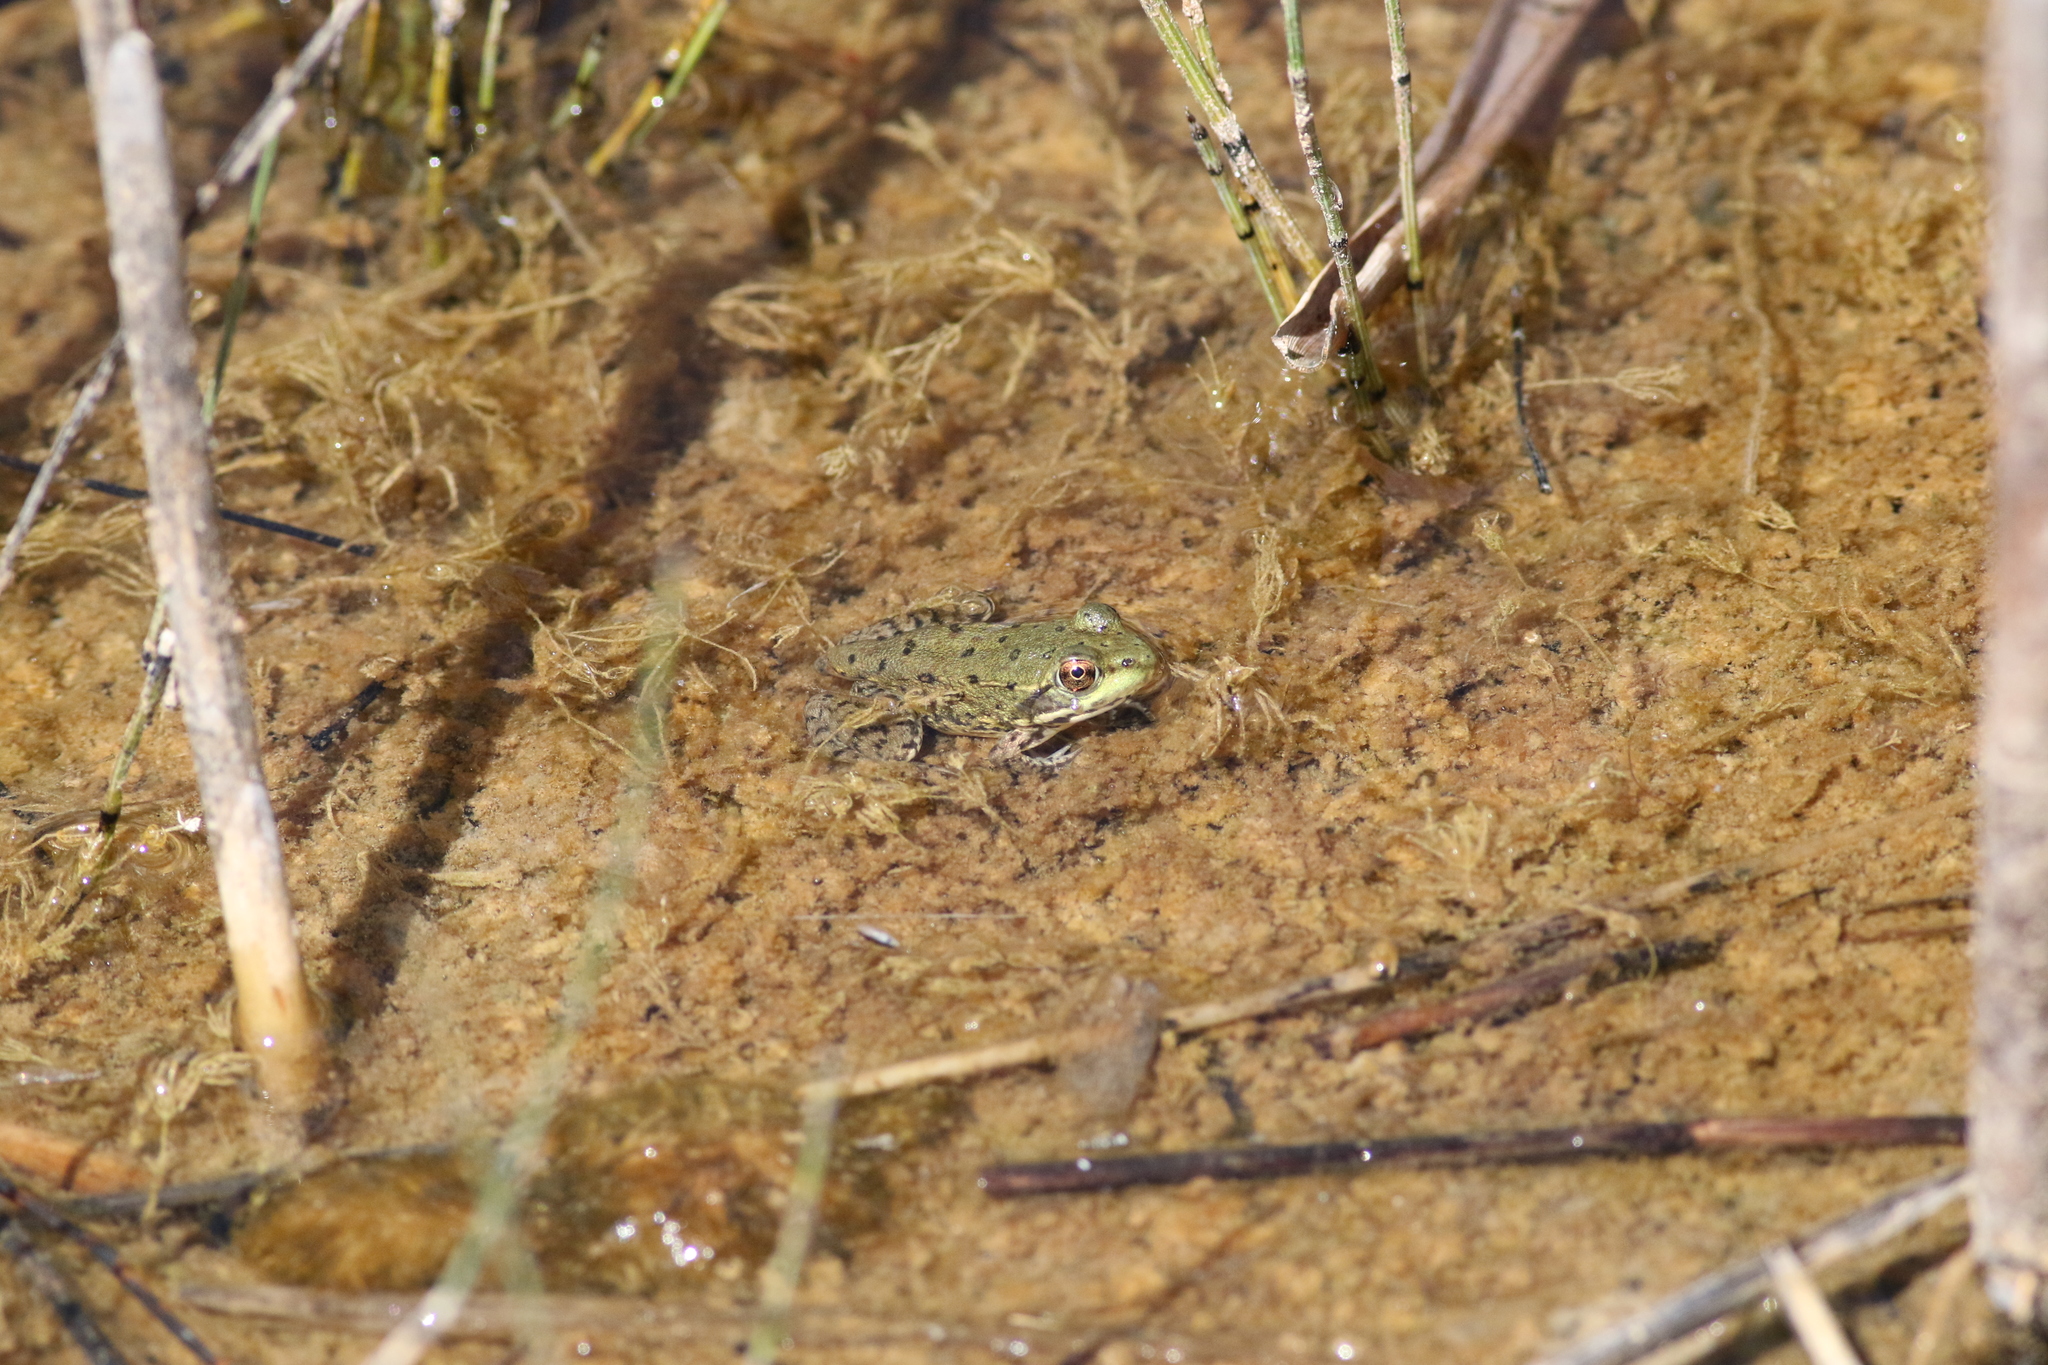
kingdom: Animalia
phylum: Chordata
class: Amphibia
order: Anura
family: Ranidae
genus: Lithobates
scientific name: Lithobates clamitans
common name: Green frog
